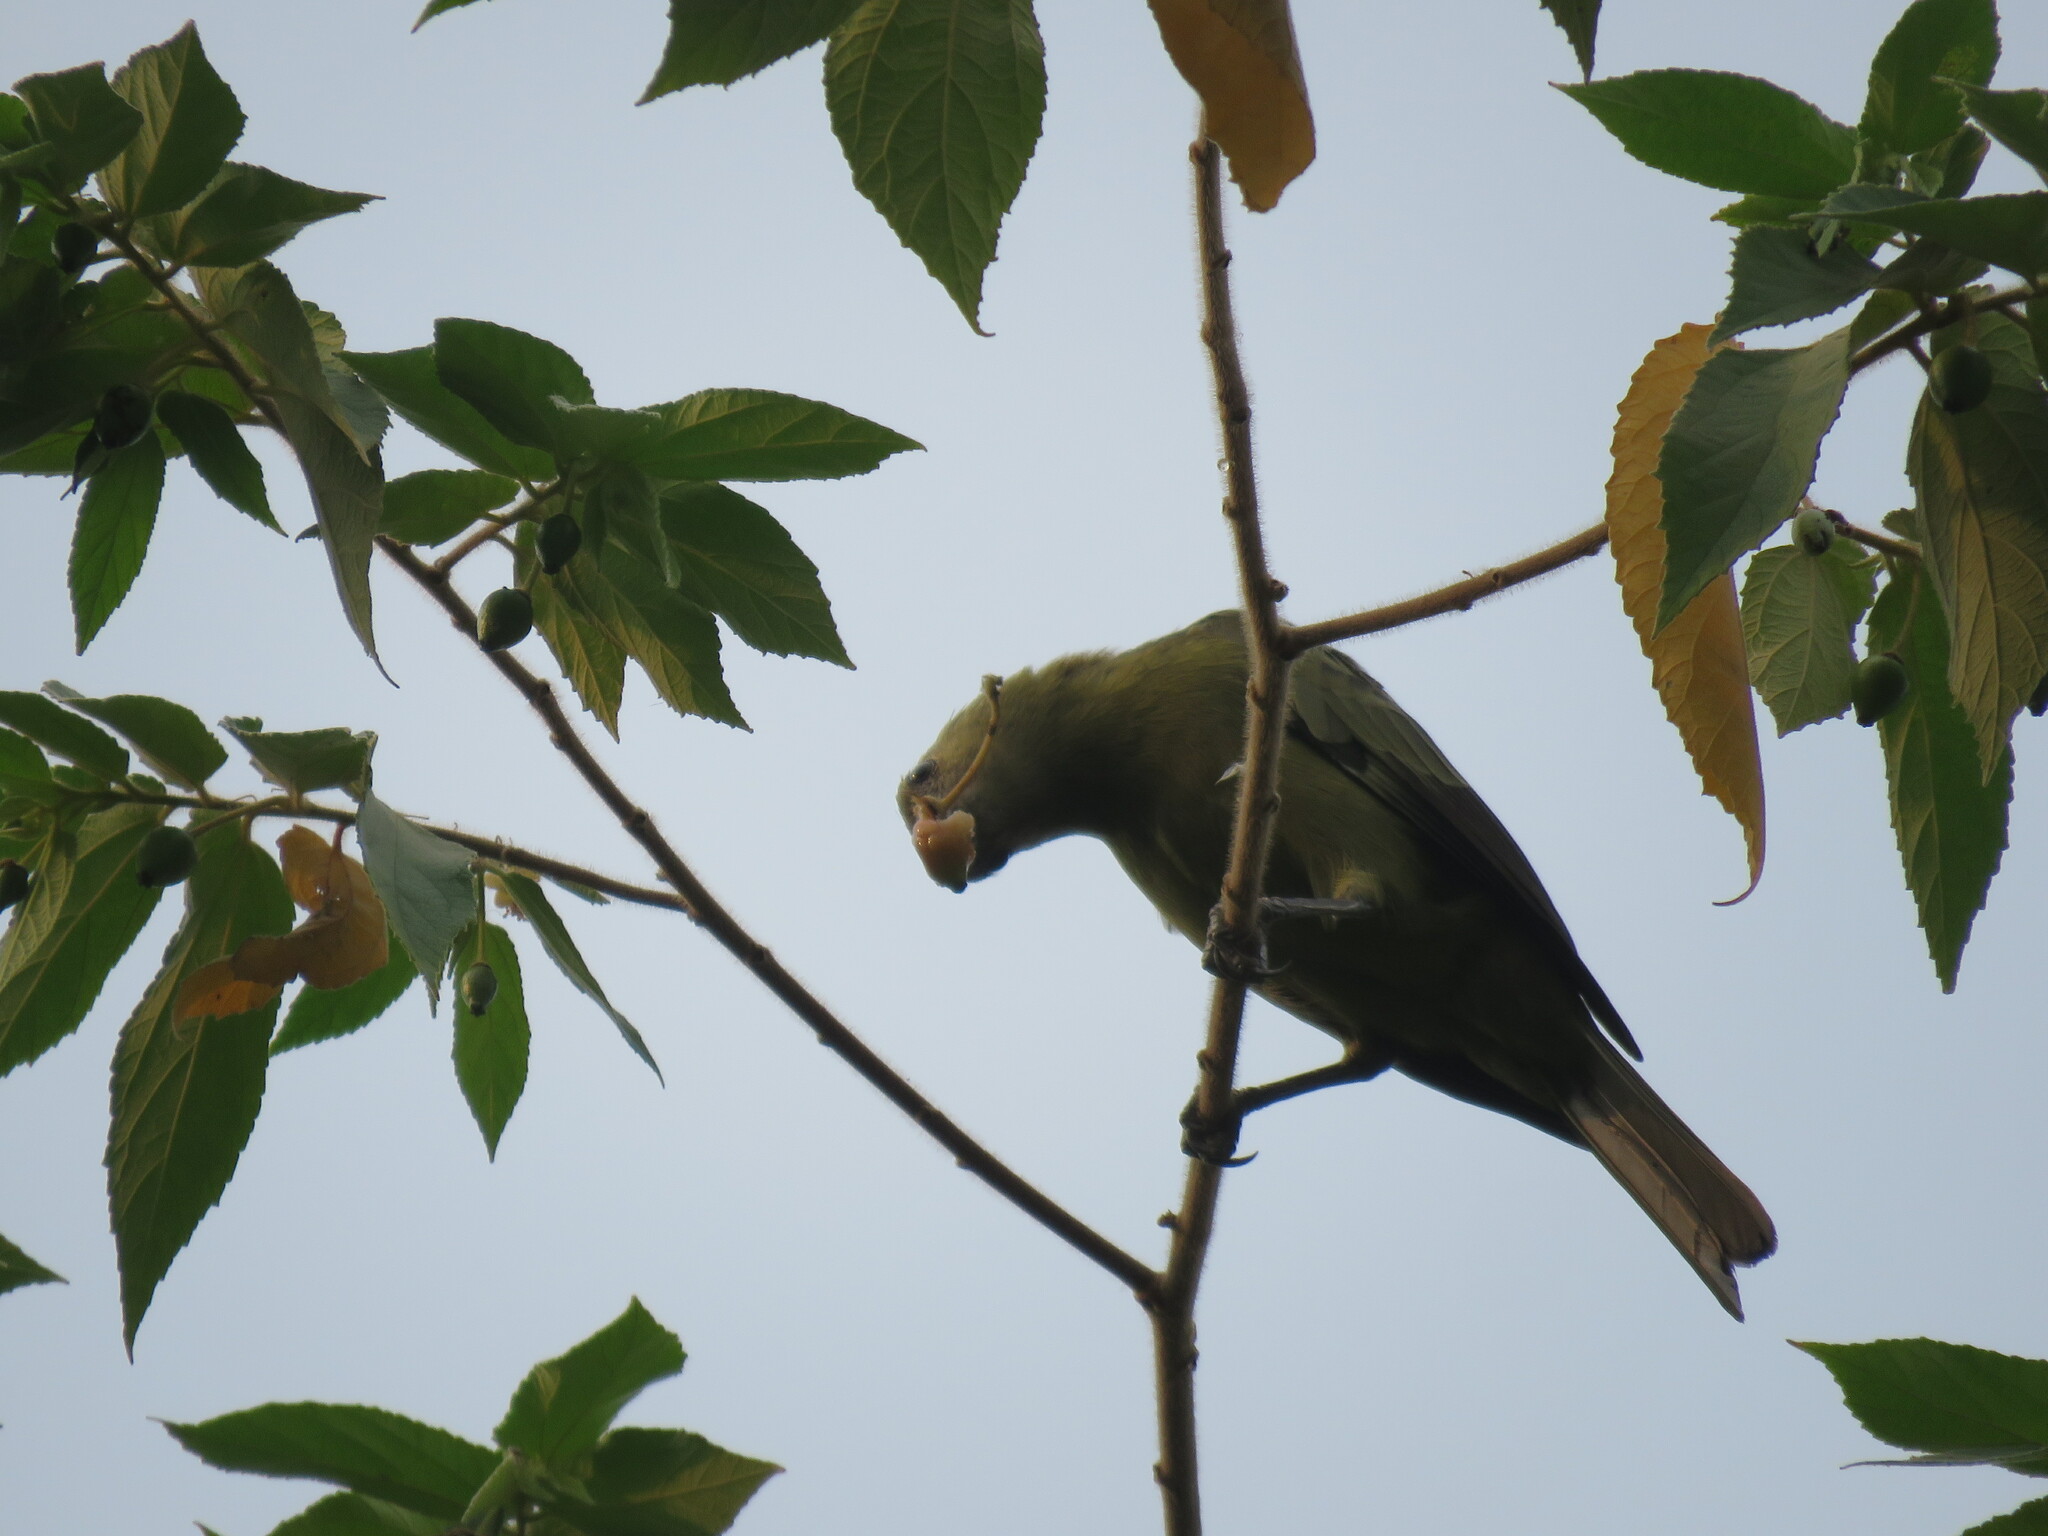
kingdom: Animalia
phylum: Chordata
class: Aves
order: Passeriformes
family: Thraupidae
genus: Thraupis
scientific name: Thraupis palmarum
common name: Palm tanager
